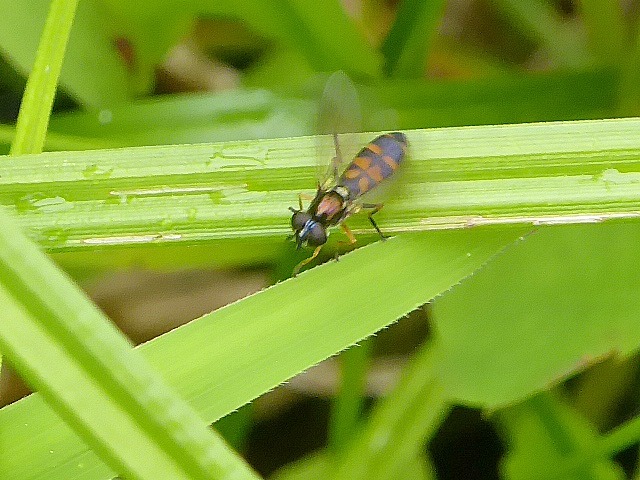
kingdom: Animalia
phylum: Arthropoda
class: Insecta
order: Diptera
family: Syrphidae
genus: Pyrophaena
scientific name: Pyrophaena granditarsa
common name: Hornhand sedgesitter
